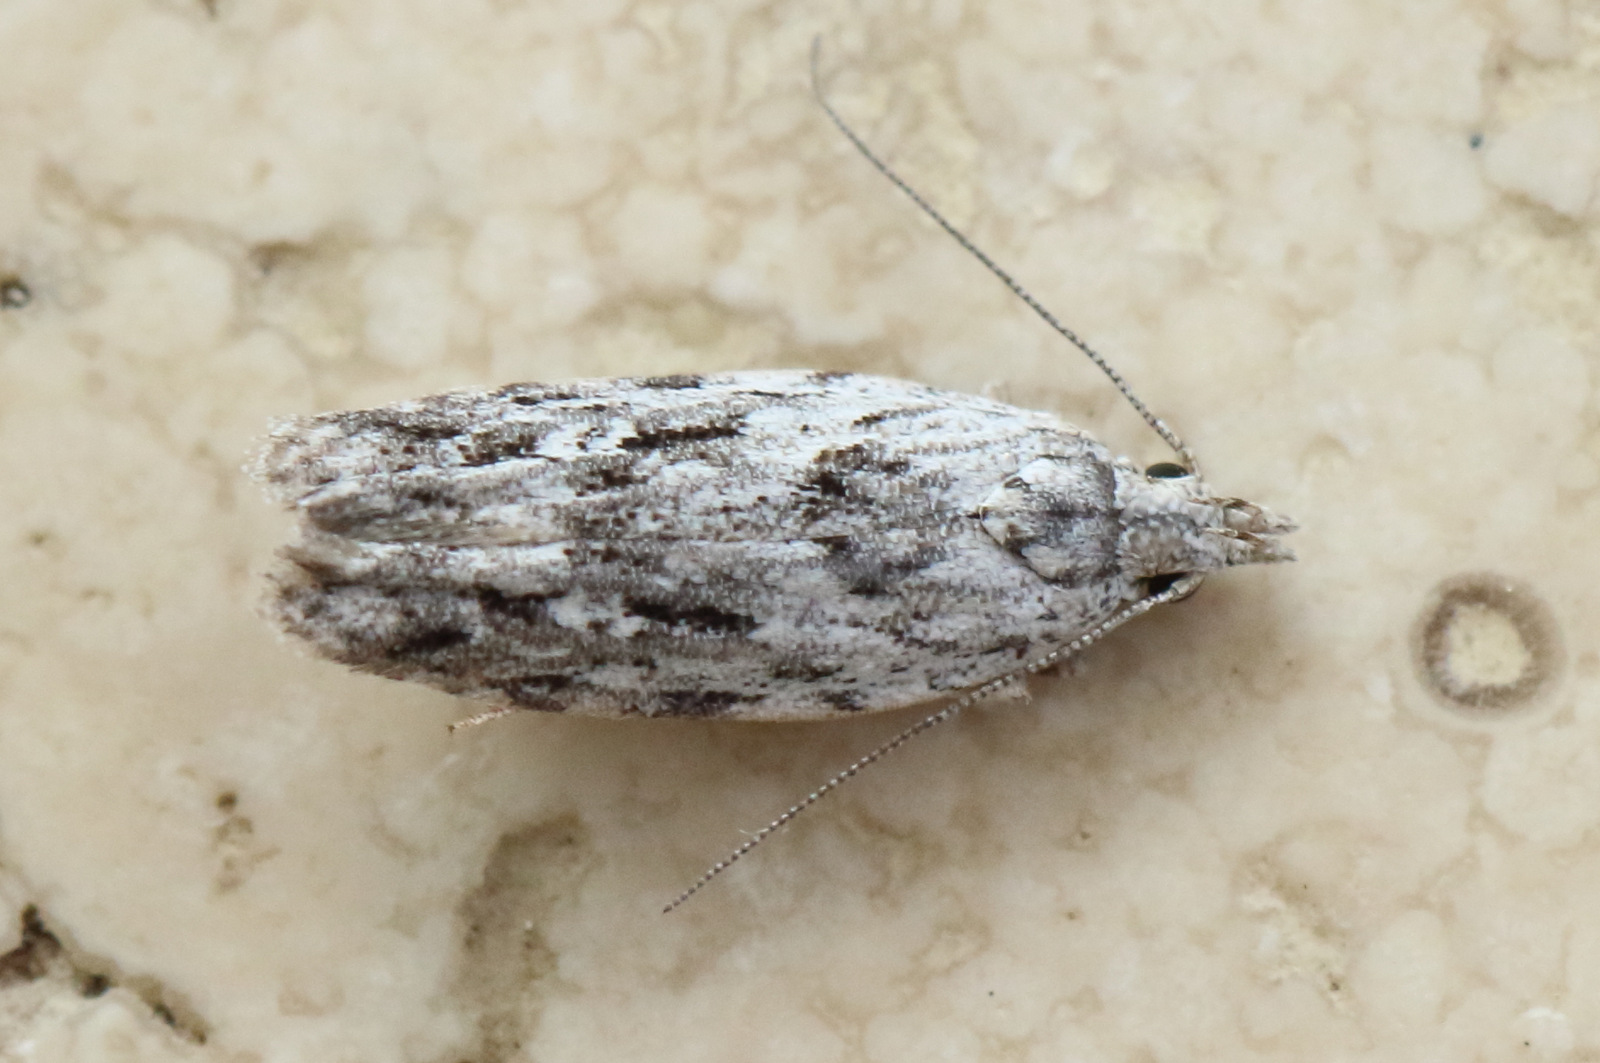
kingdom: Animalia
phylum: Arthropoda
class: Insecta
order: Lepidoptera
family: Gelechiidae
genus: Hypatima
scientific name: Hypatima cyrtopleura
